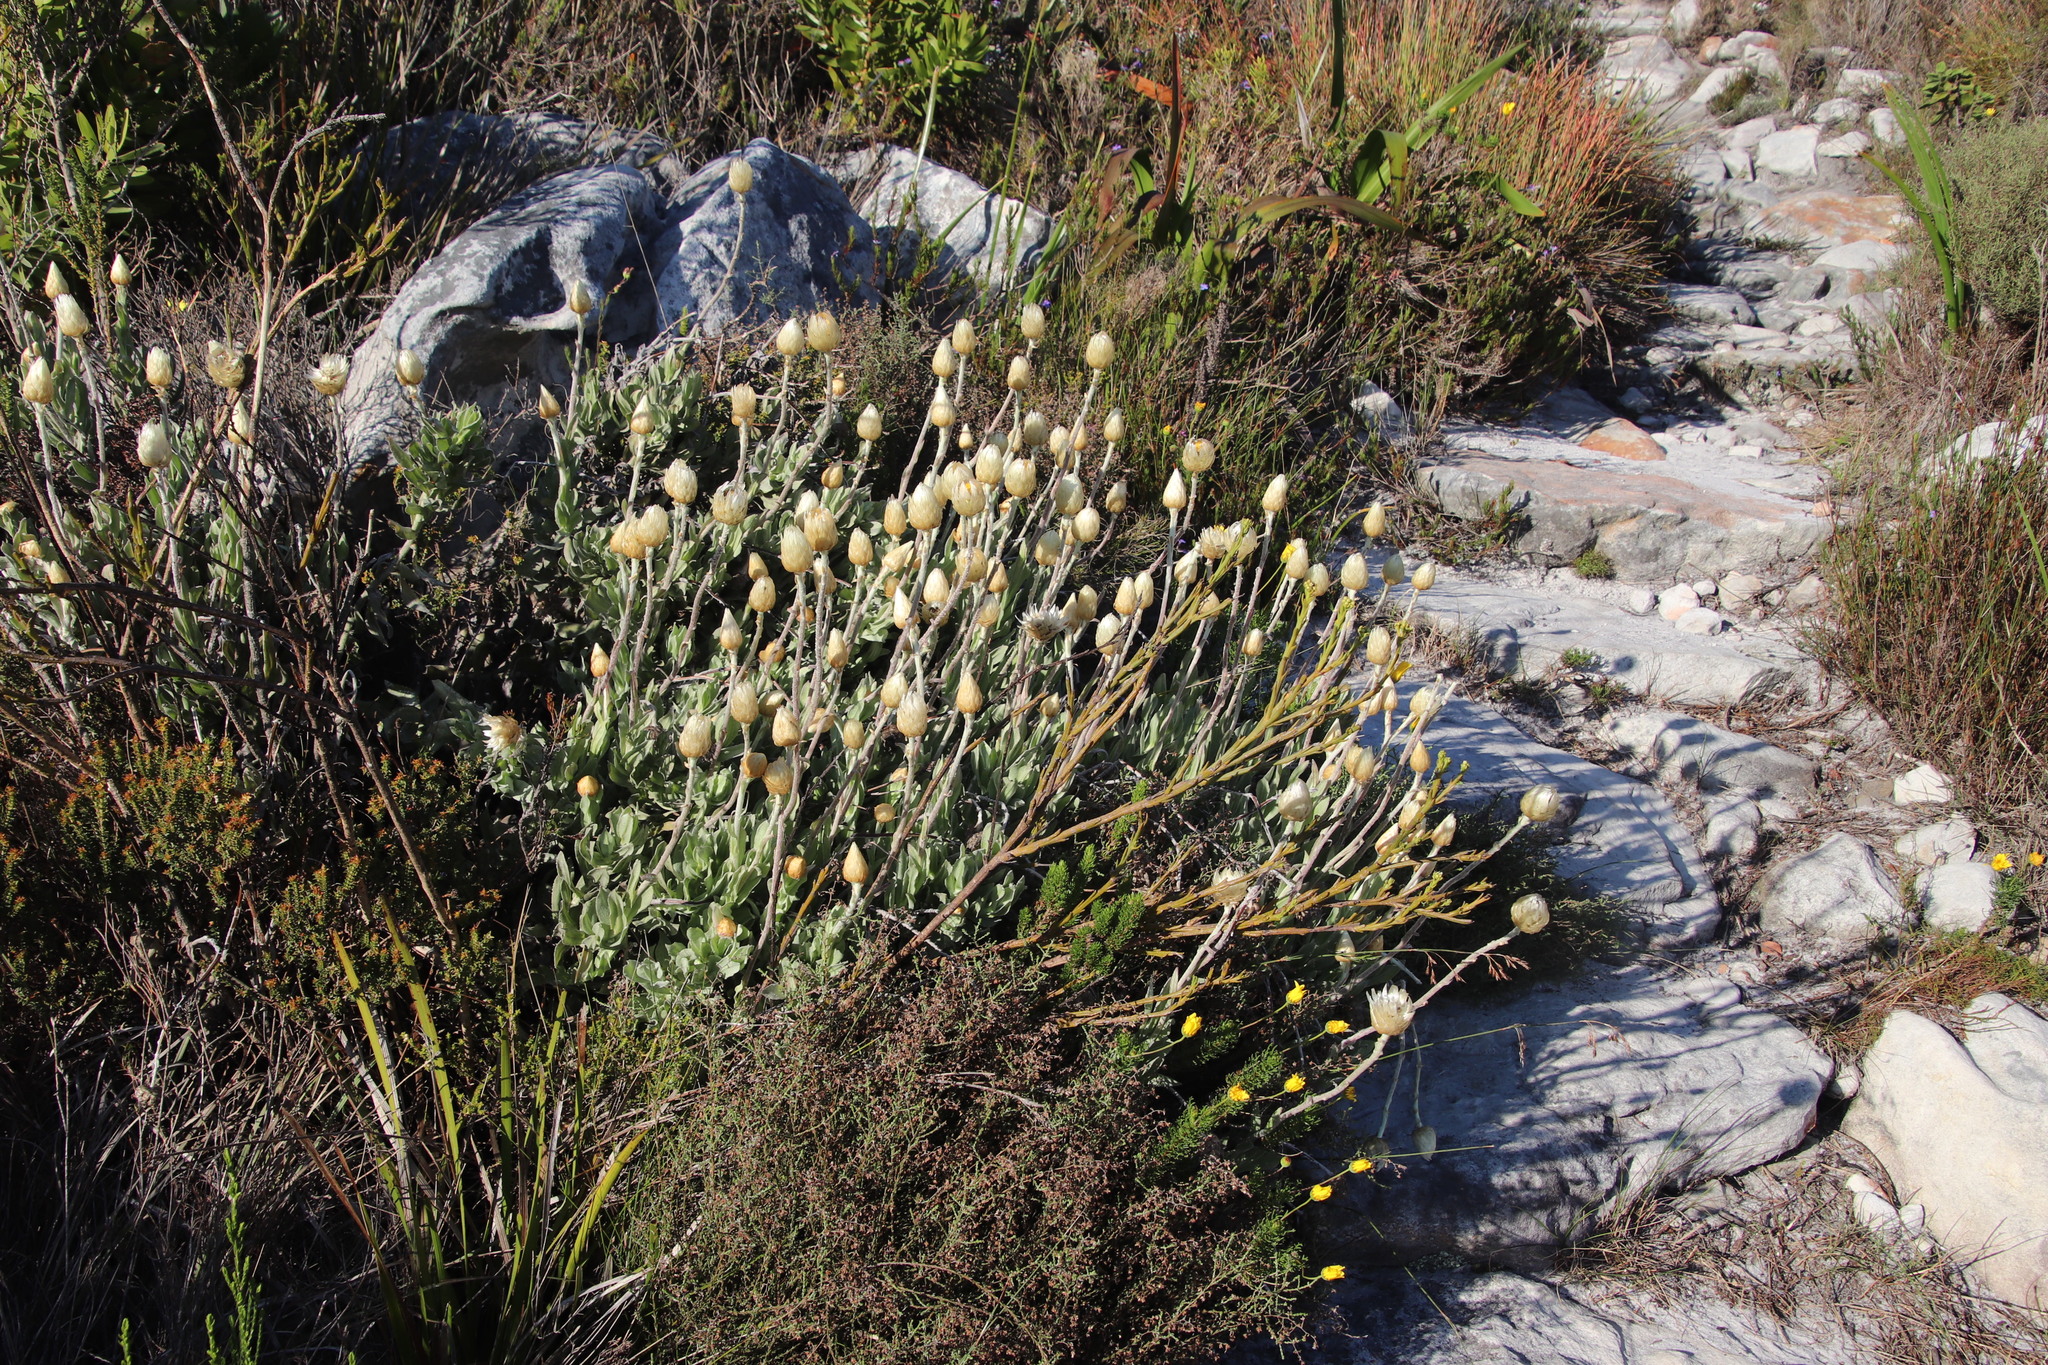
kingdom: Plantae
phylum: Tracheophyta
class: Magnoliopsida
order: Asterales
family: Asteraceae
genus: Syncarpha
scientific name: Syncarpha speciosissima
